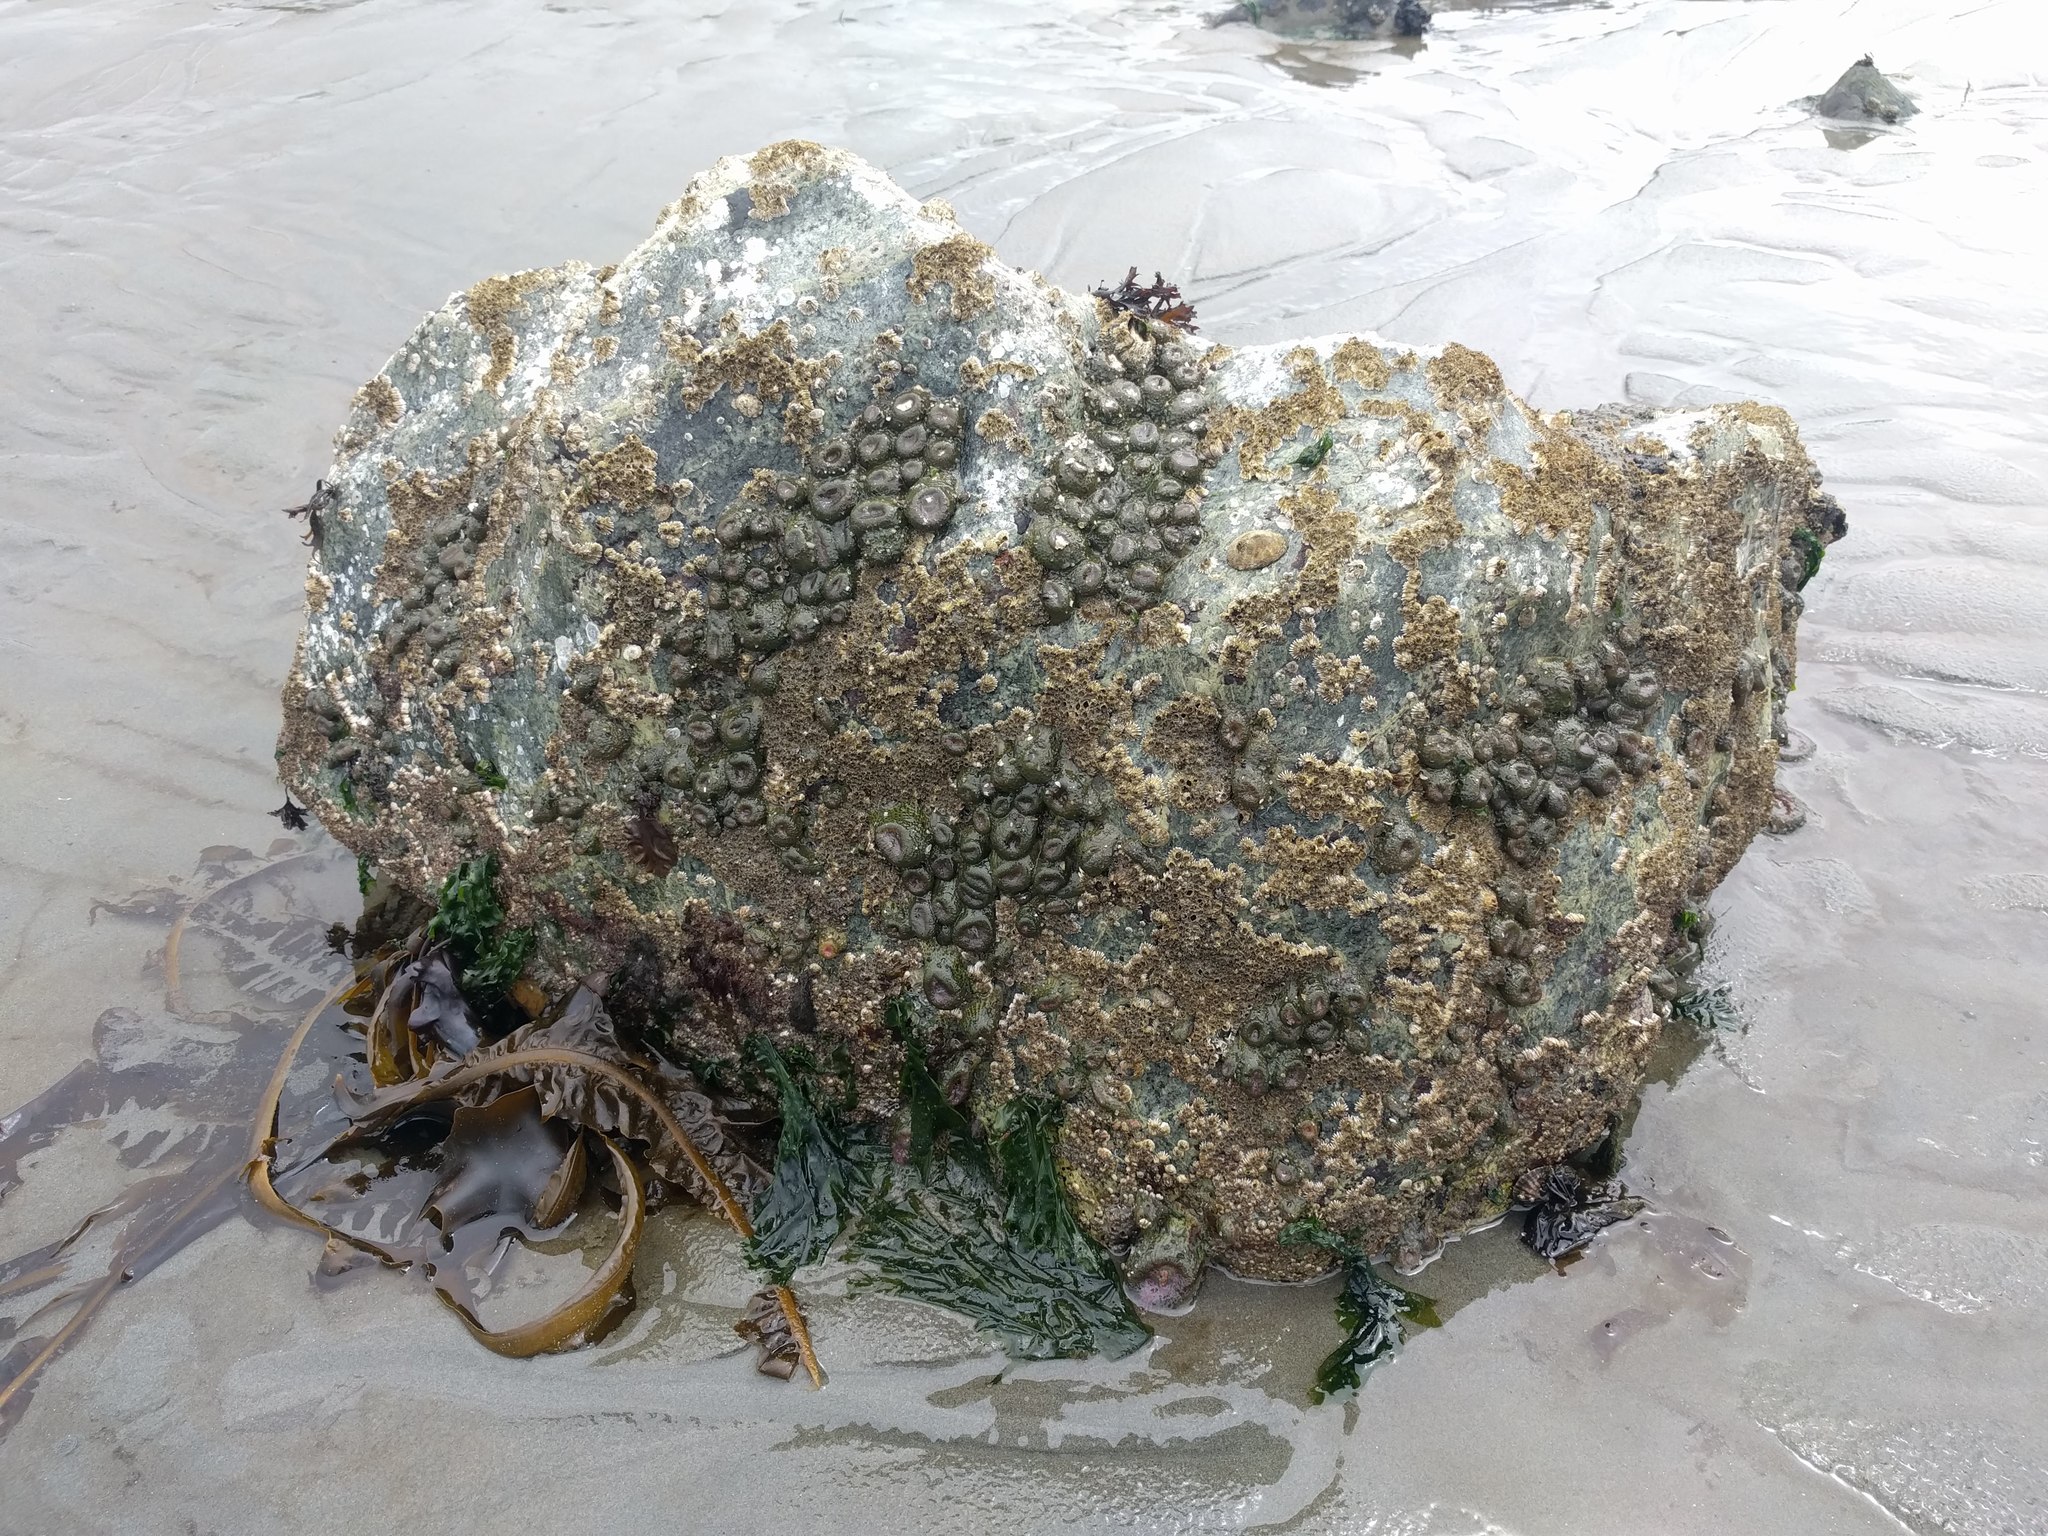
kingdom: Animalia
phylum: Cnidaria
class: Anthozoa
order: Actiniaria
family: Actiniidae
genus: Anthopleura
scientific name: Anthopleura elegantissima
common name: Clonal anemone
